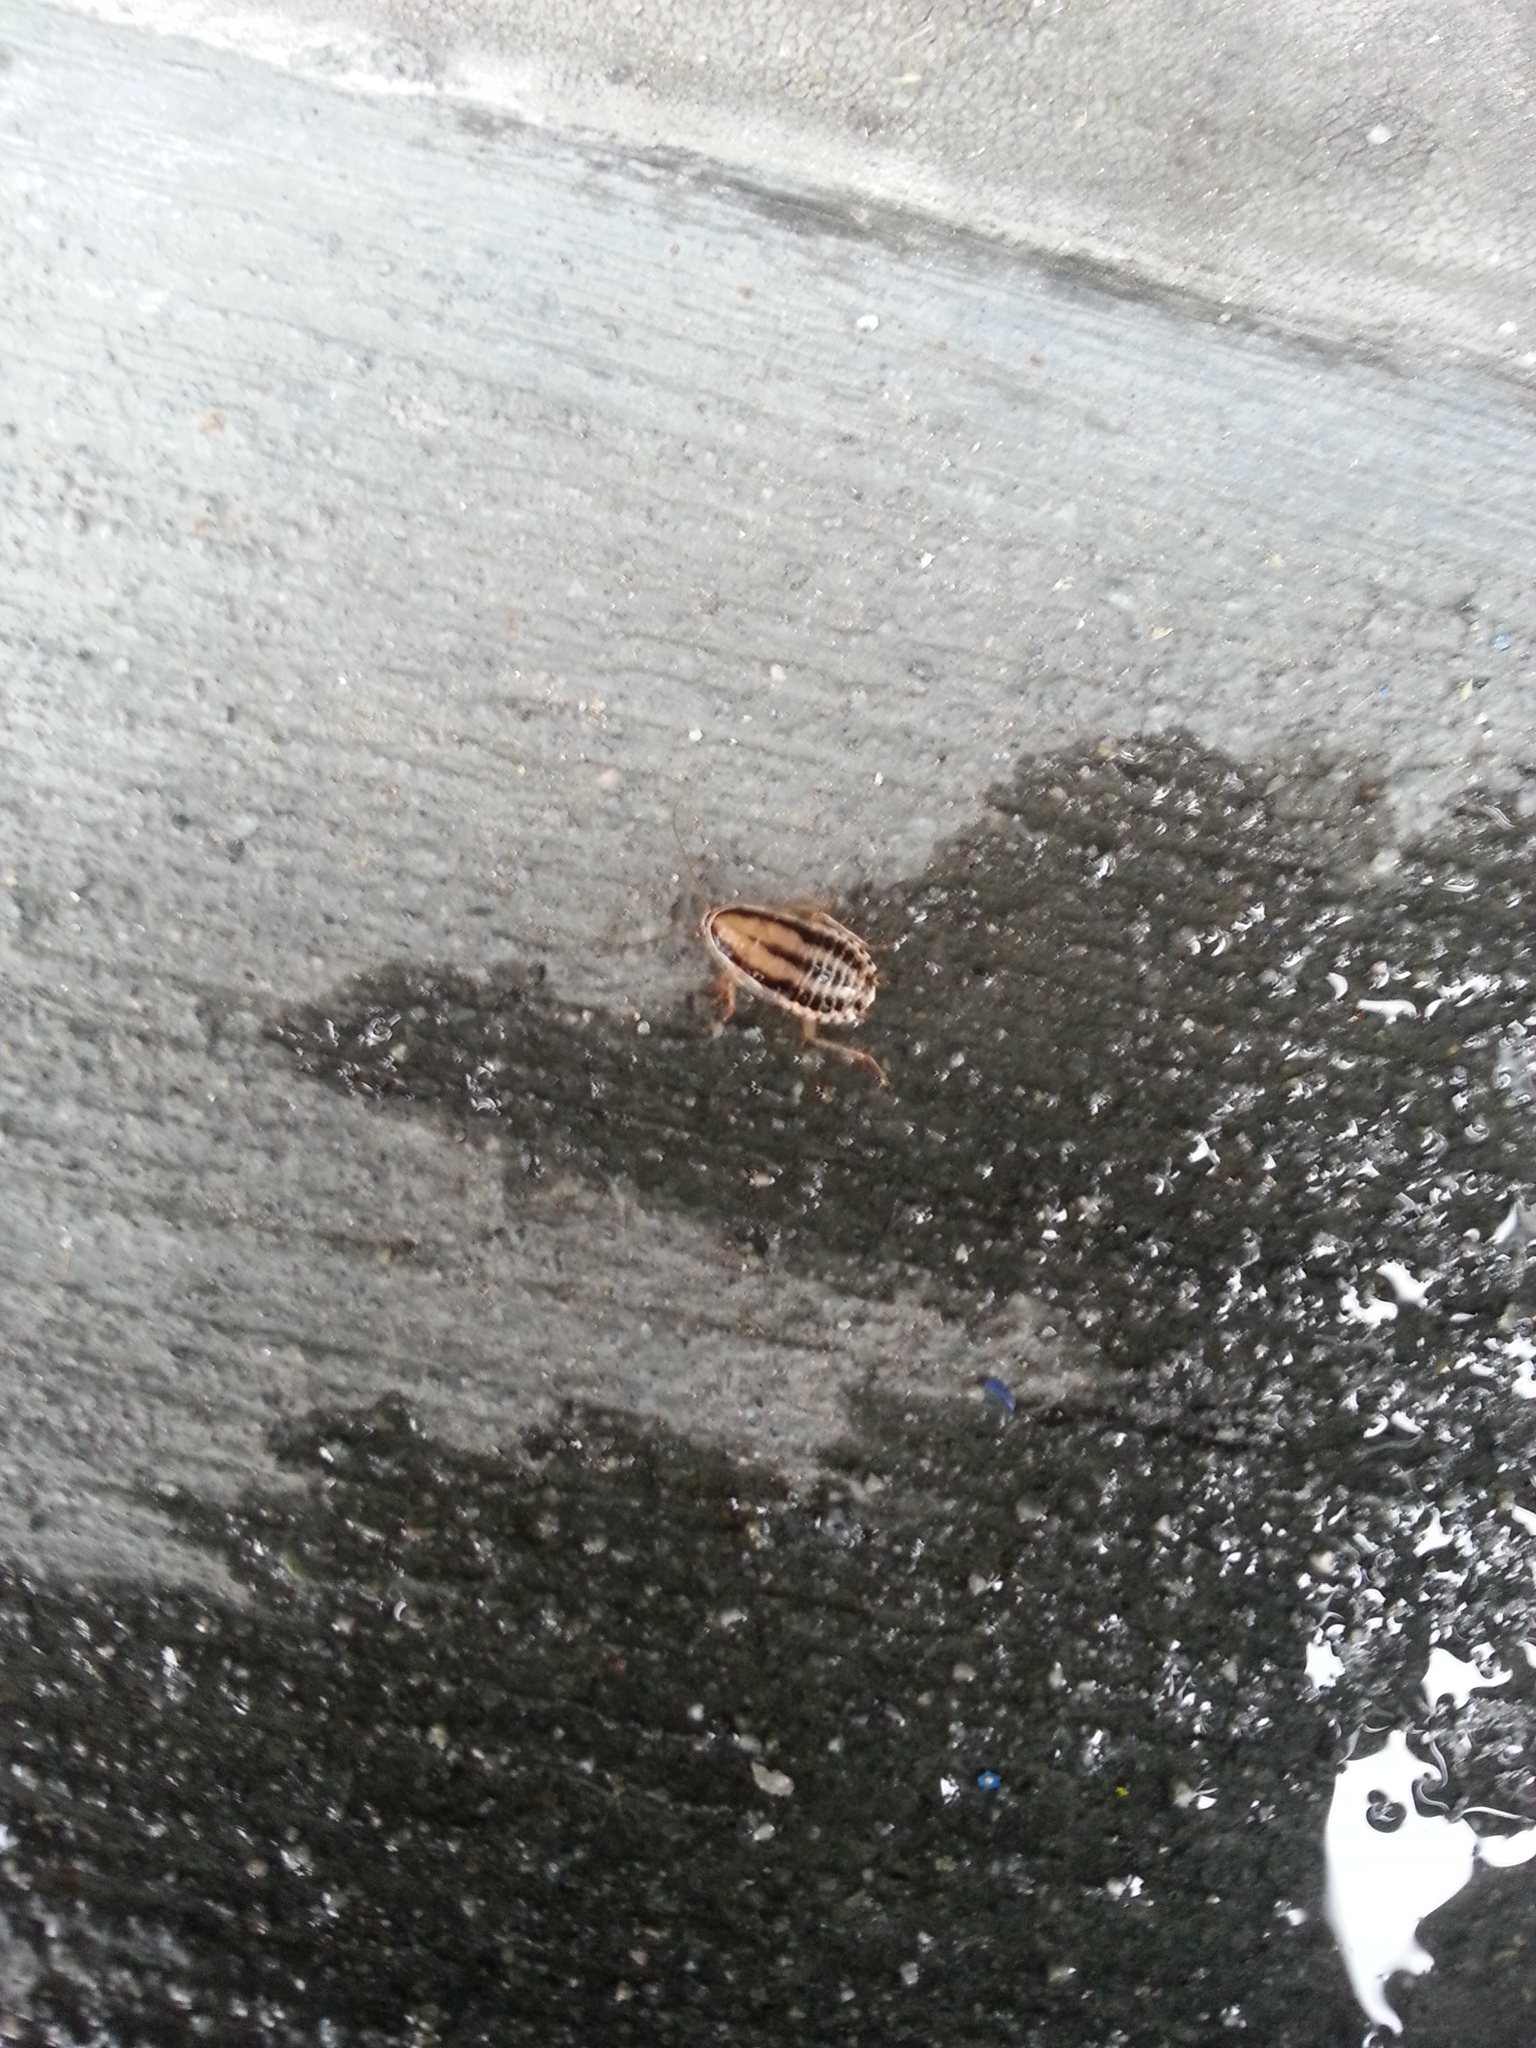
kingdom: Animalia
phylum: Arthropoda
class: Insecta
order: Blattodea
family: Ectobiidae
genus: Luridiblatta
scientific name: Luridiblatta trivittata
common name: Three-lined cockroach
